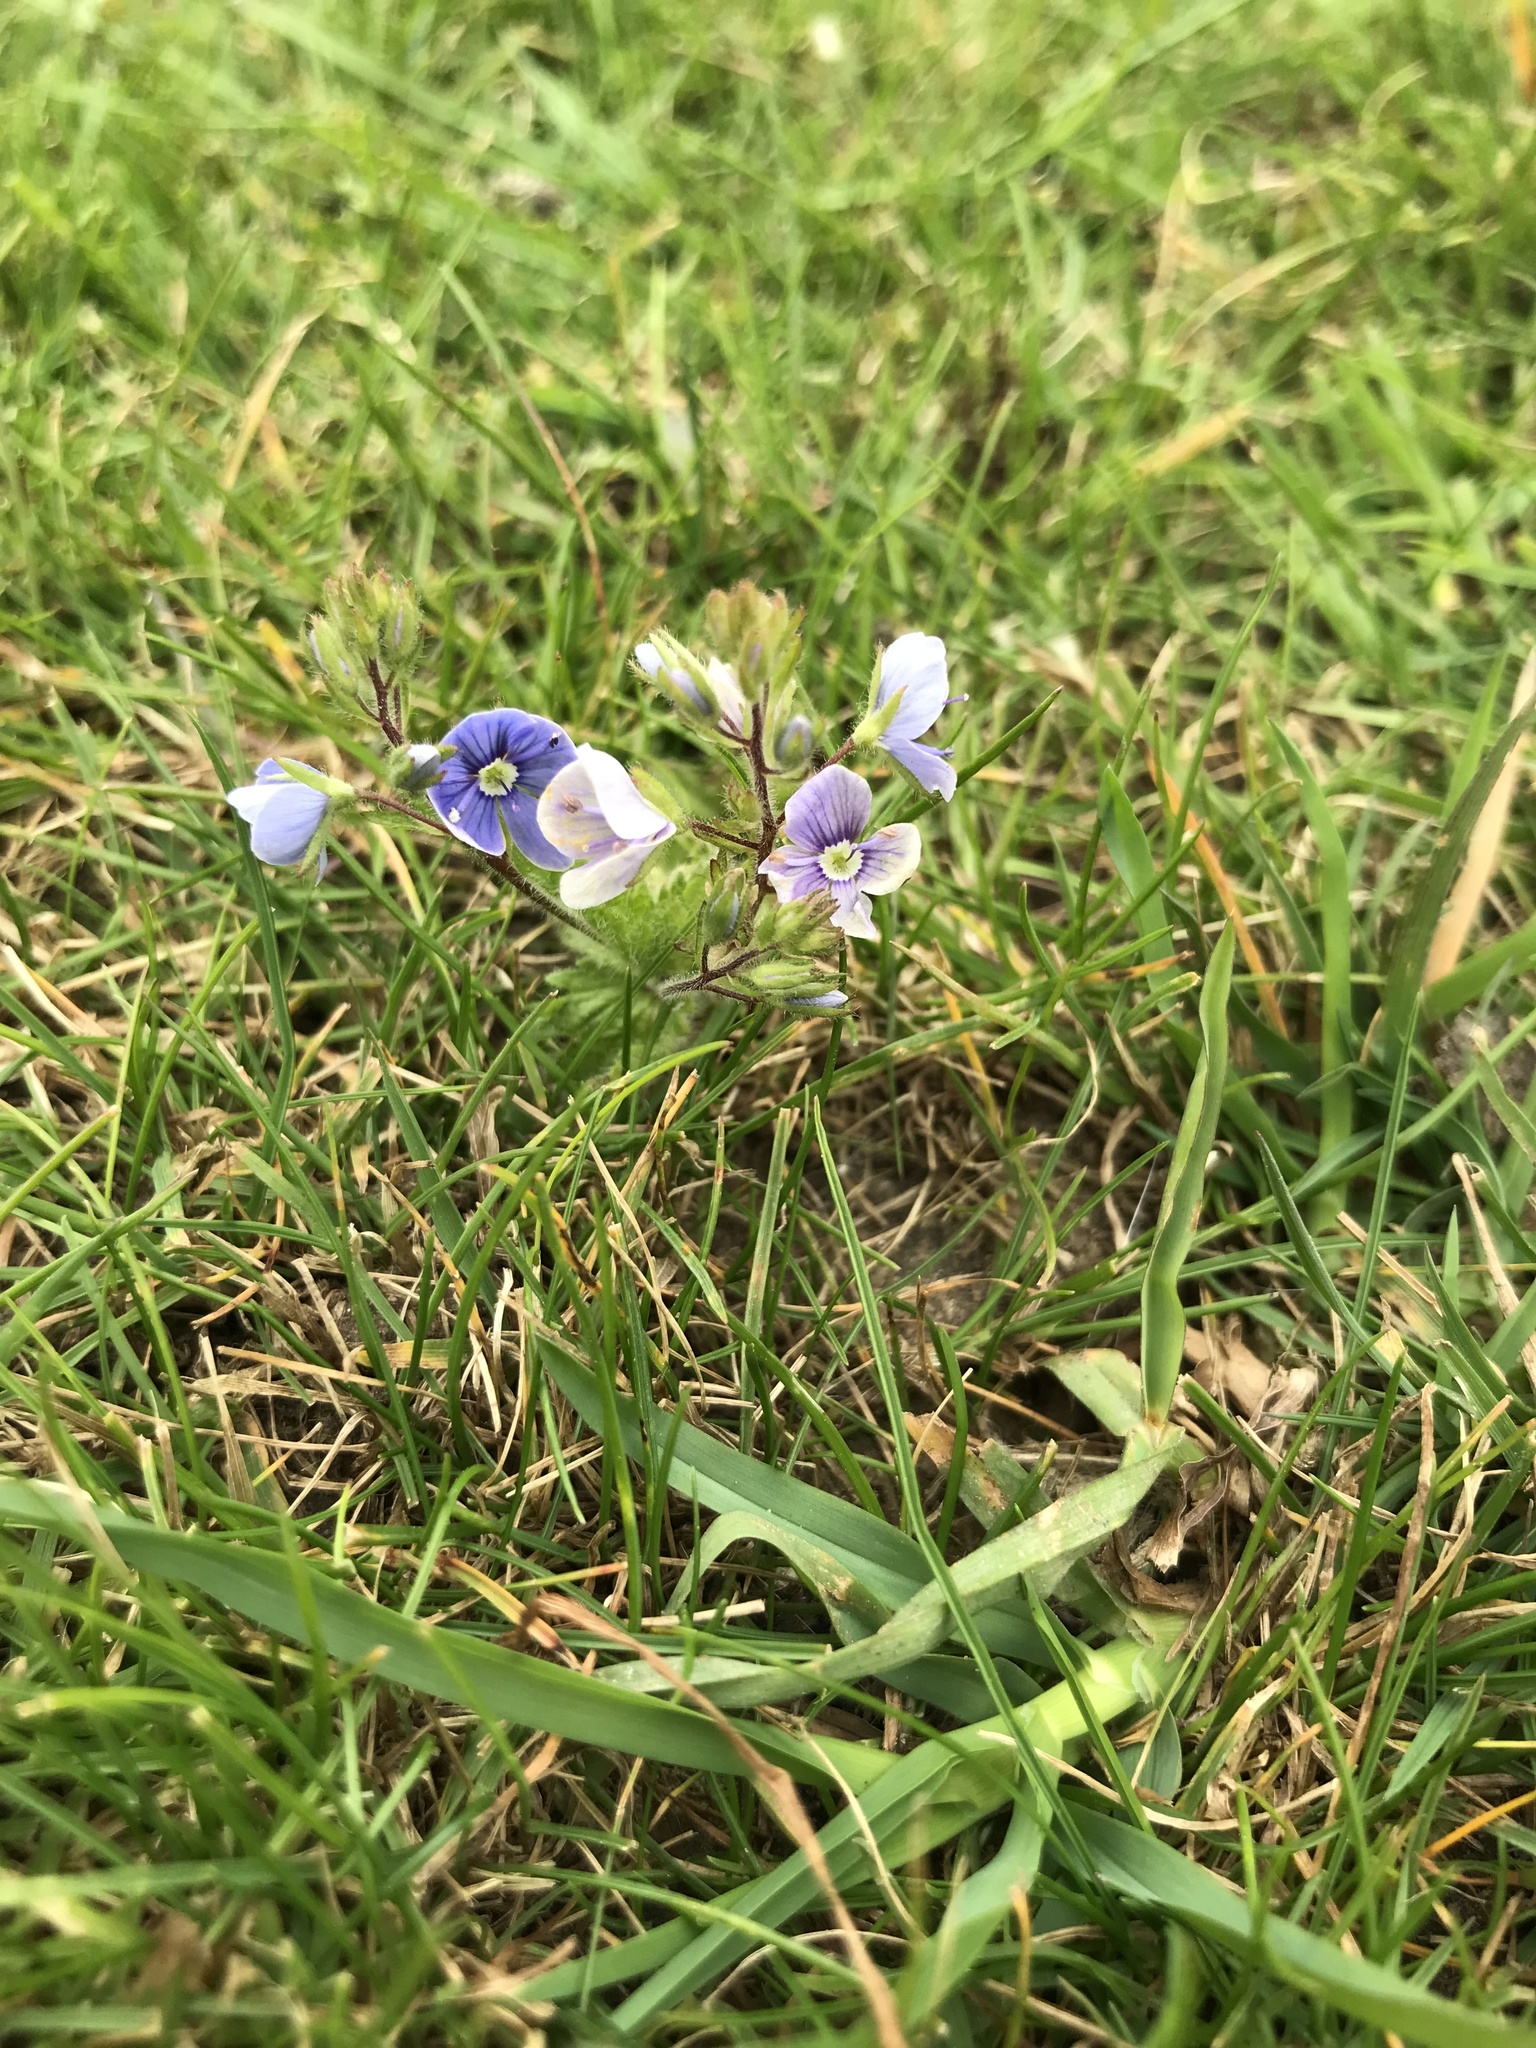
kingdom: Plantae
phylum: Tracheophyta
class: Magnoliopsida
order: Lamiales
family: Plantaginaceae
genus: Veronica
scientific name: Veronica chamaedrys
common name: Germander speedwell
